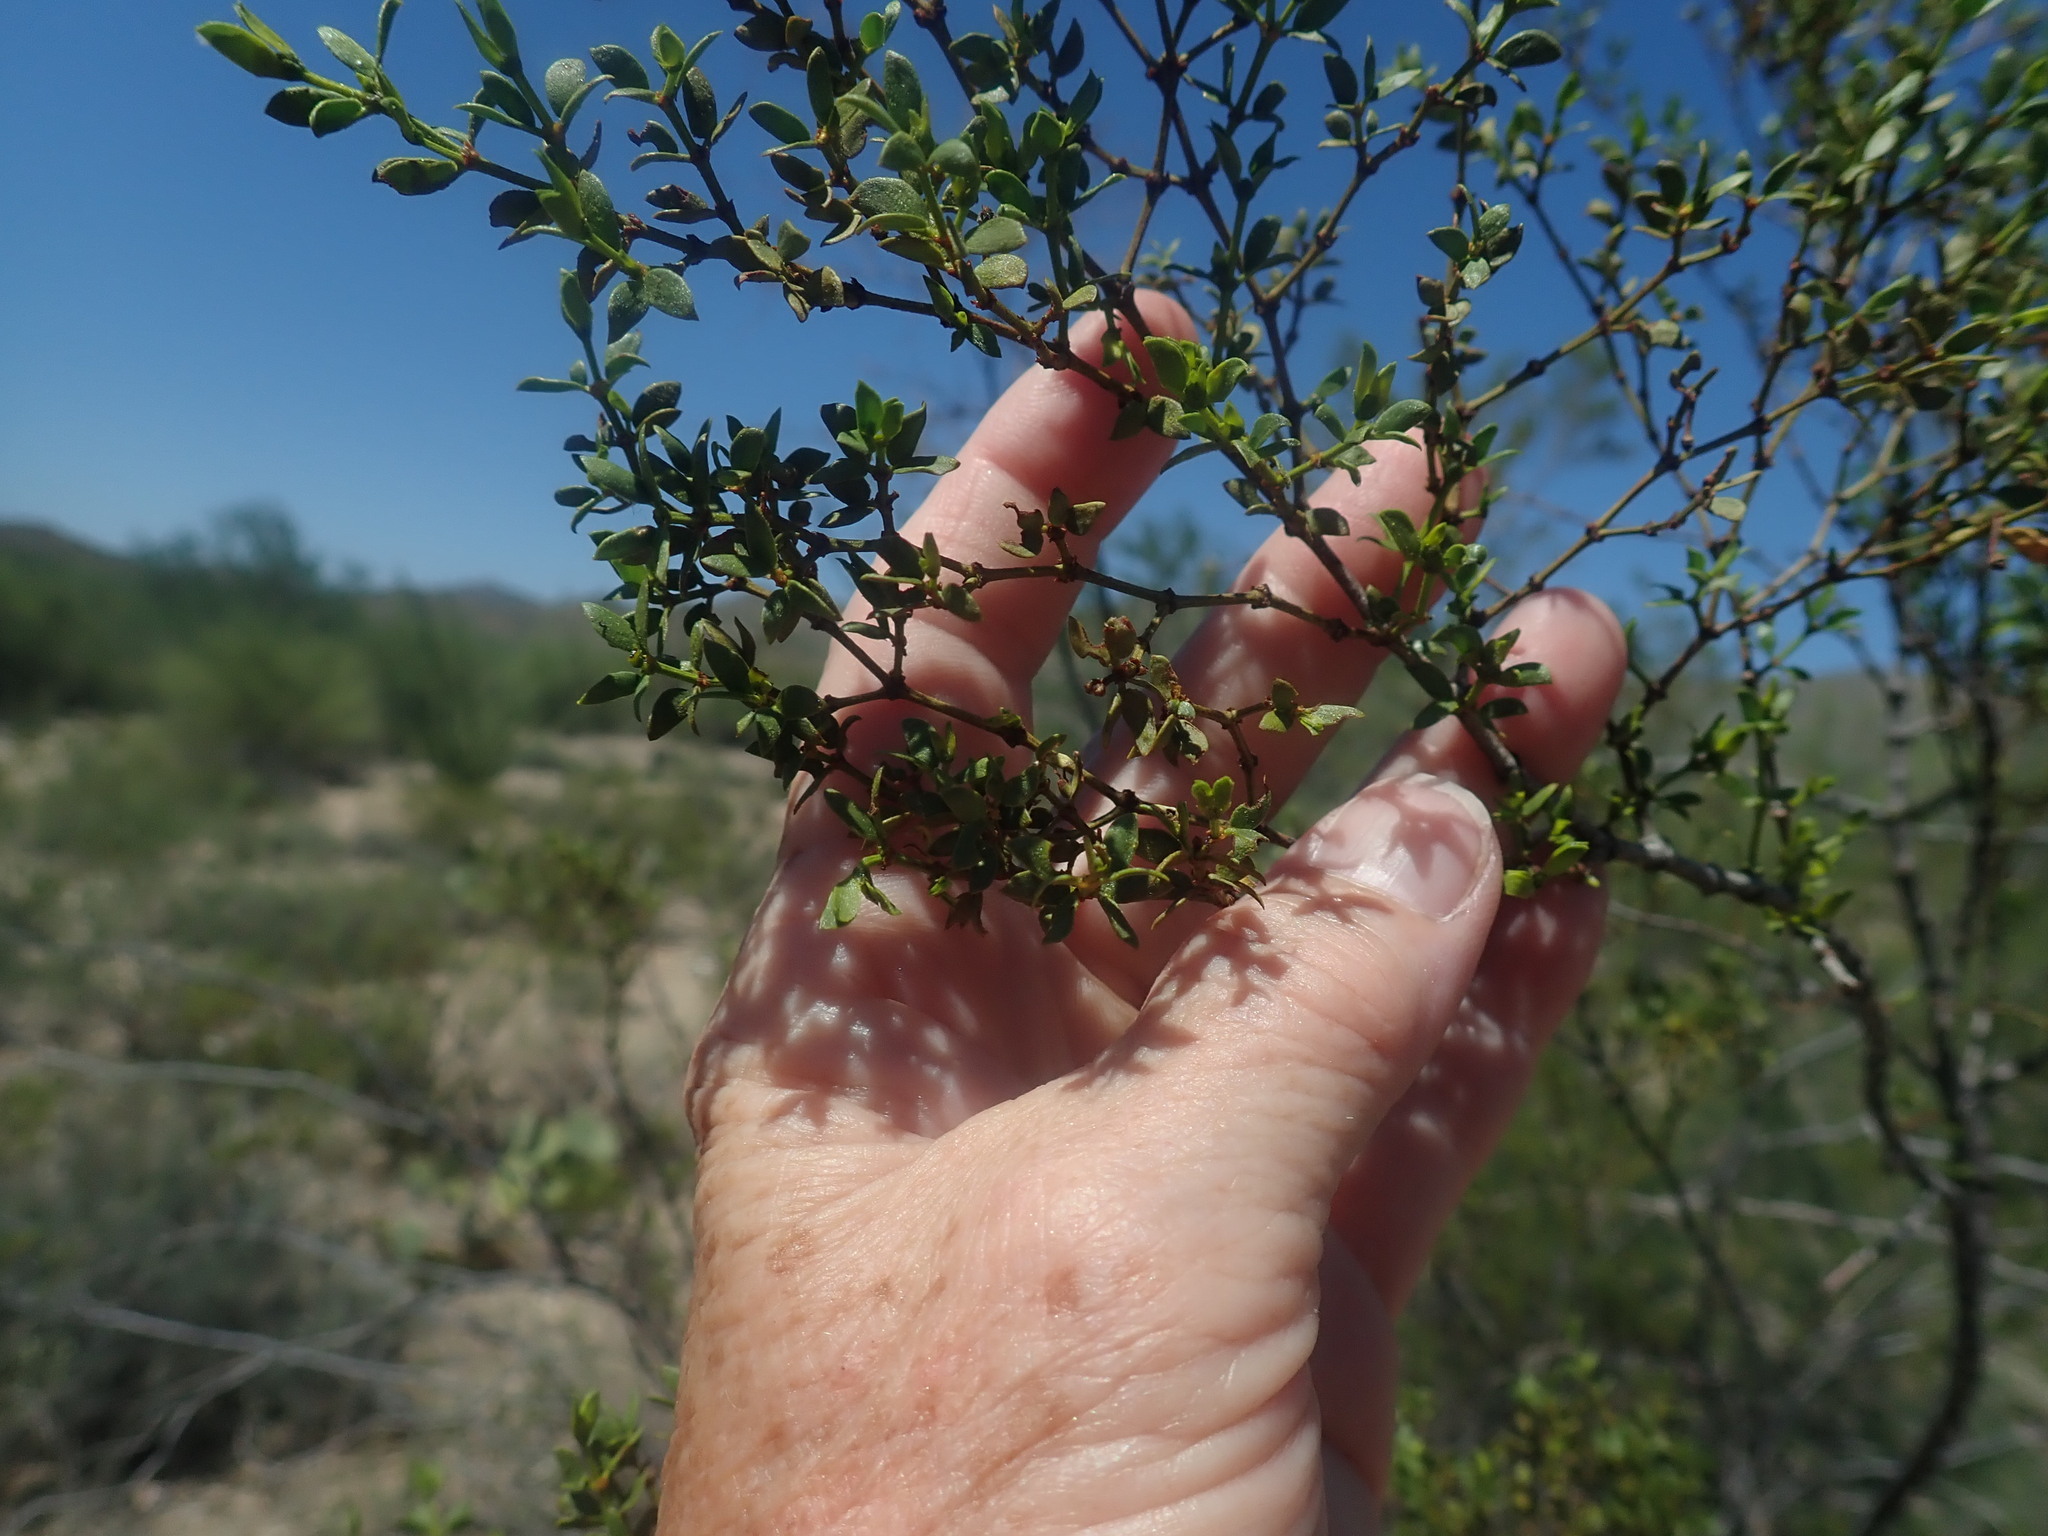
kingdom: Plantae
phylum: Tracheophyta
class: Magnoliopsida
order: Zygophyllales
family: Zygophyllaceae
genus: Larrea
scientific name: Larrea tridentata
